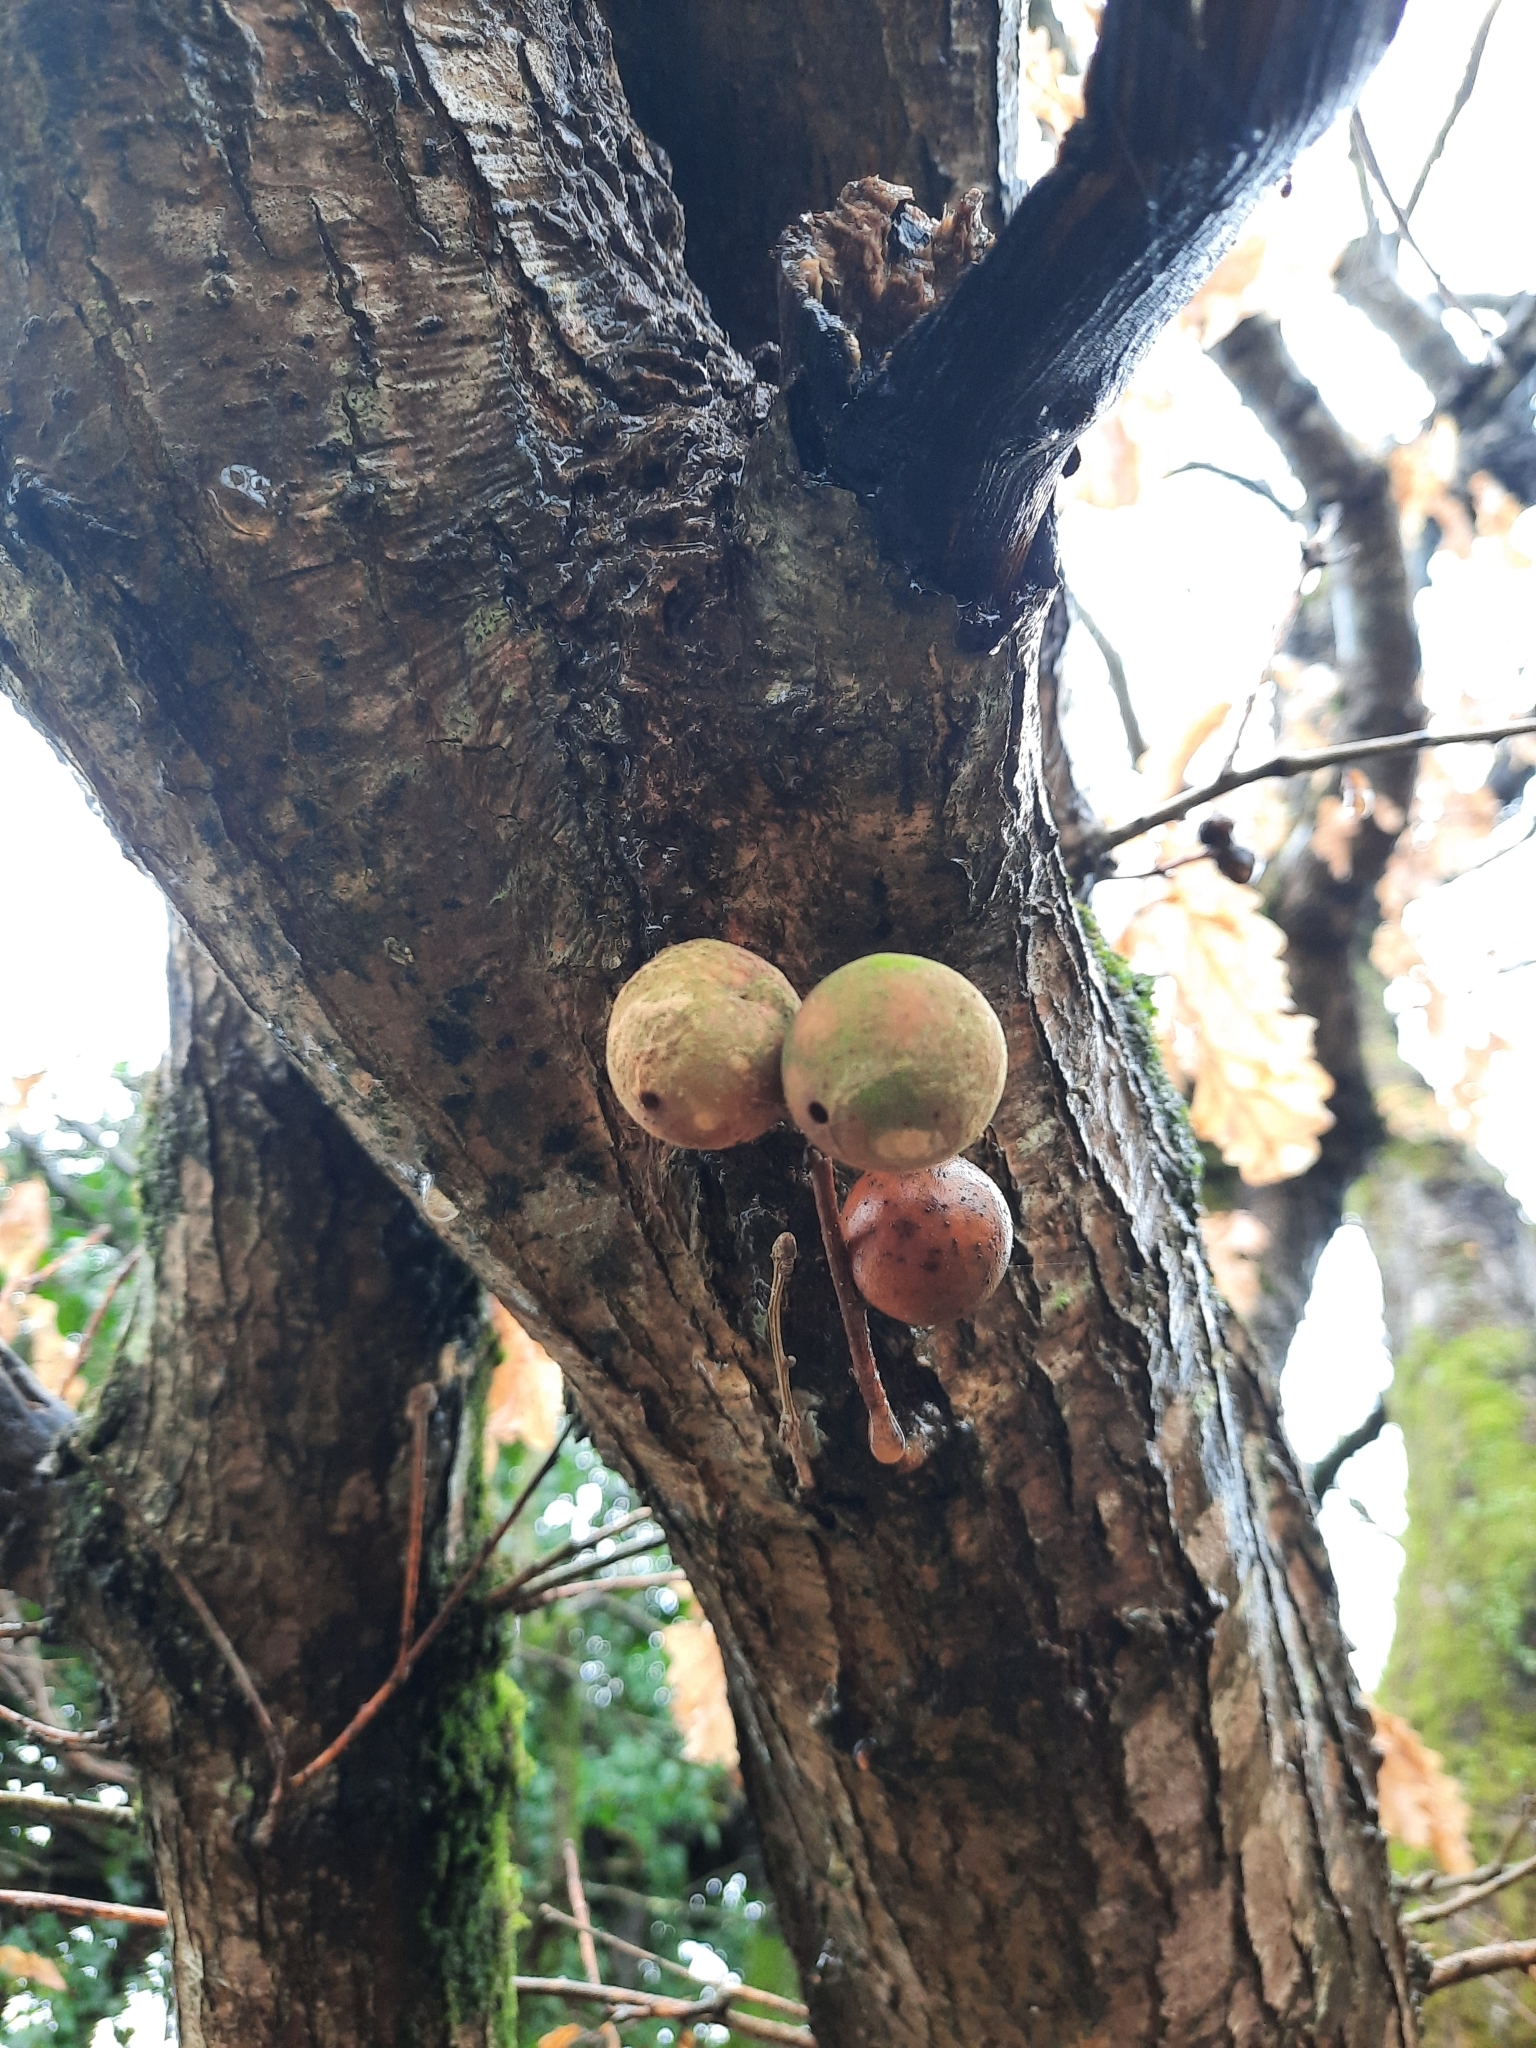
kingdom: Animalia
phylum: Arthropoda
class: Insecta
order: Hymenoptera
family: Cynipidae
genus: Andricus
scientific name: Andricus kollari
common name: Marble gall
